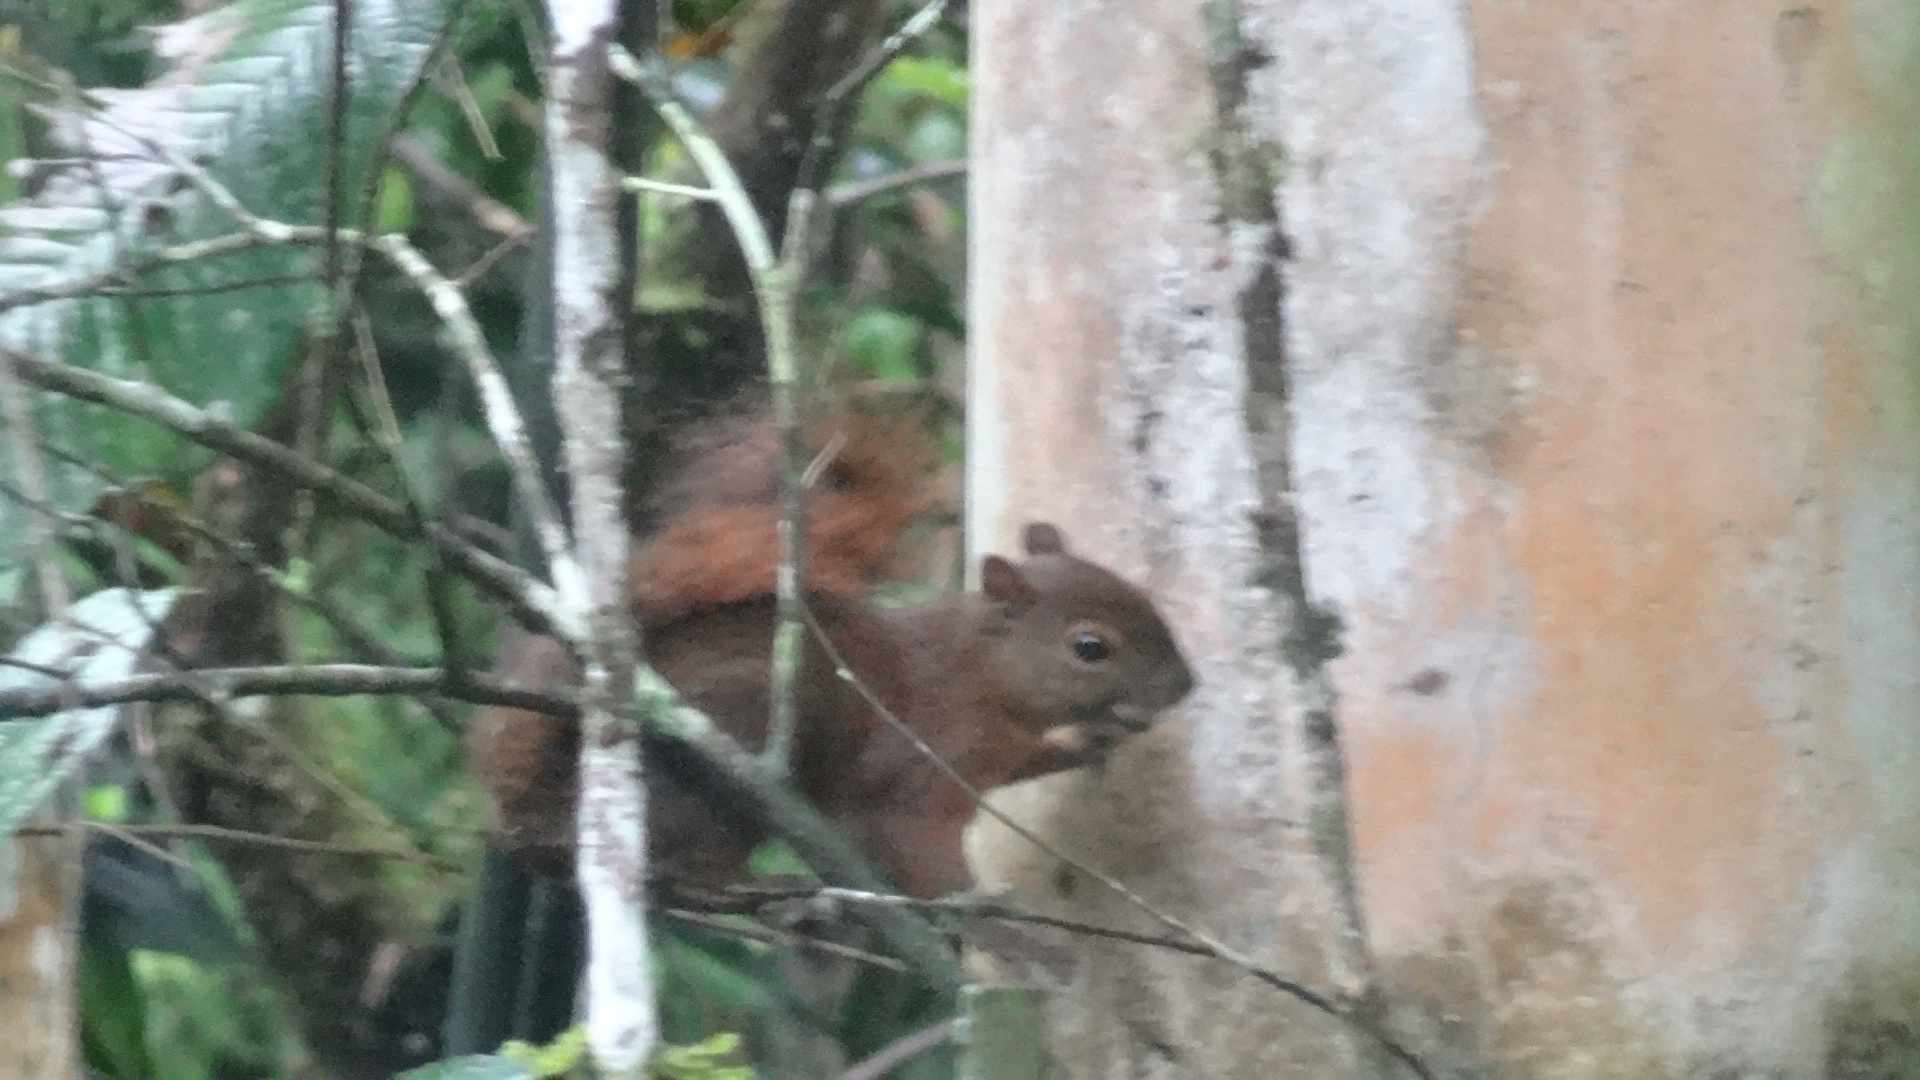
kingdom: Animalia
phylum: Chordata
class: Mammalia
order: Rodentia
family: Sciuridae
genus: Sciurus
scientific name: Sciurus granatensis
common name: Red-tailed squirrel
